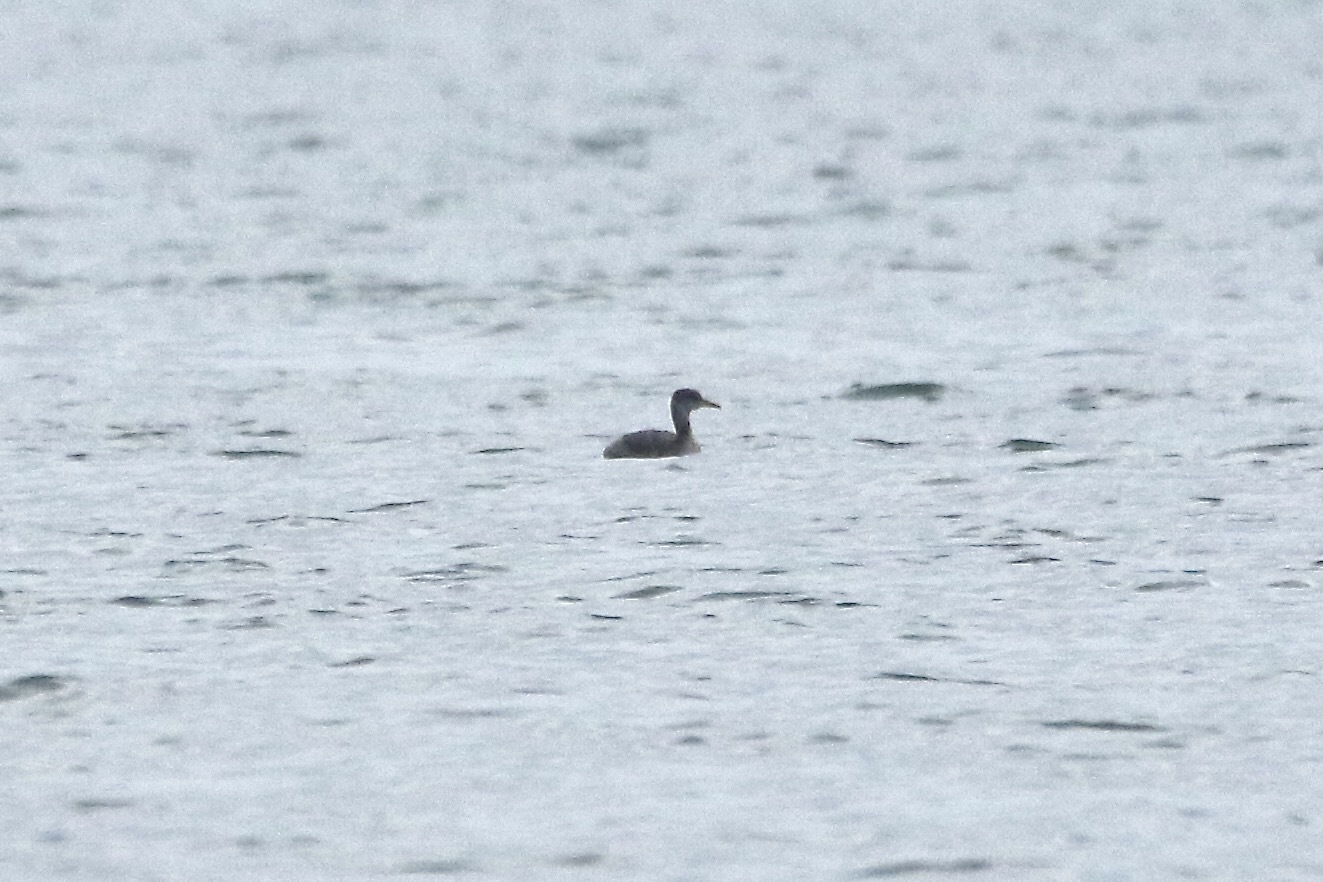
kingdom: Animalia
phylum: Chordata
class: Aves
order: Podicipediformes
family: Podicipedidae
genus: Podiceps
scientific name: Podiceps grisegena
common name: Red-necked grebe
